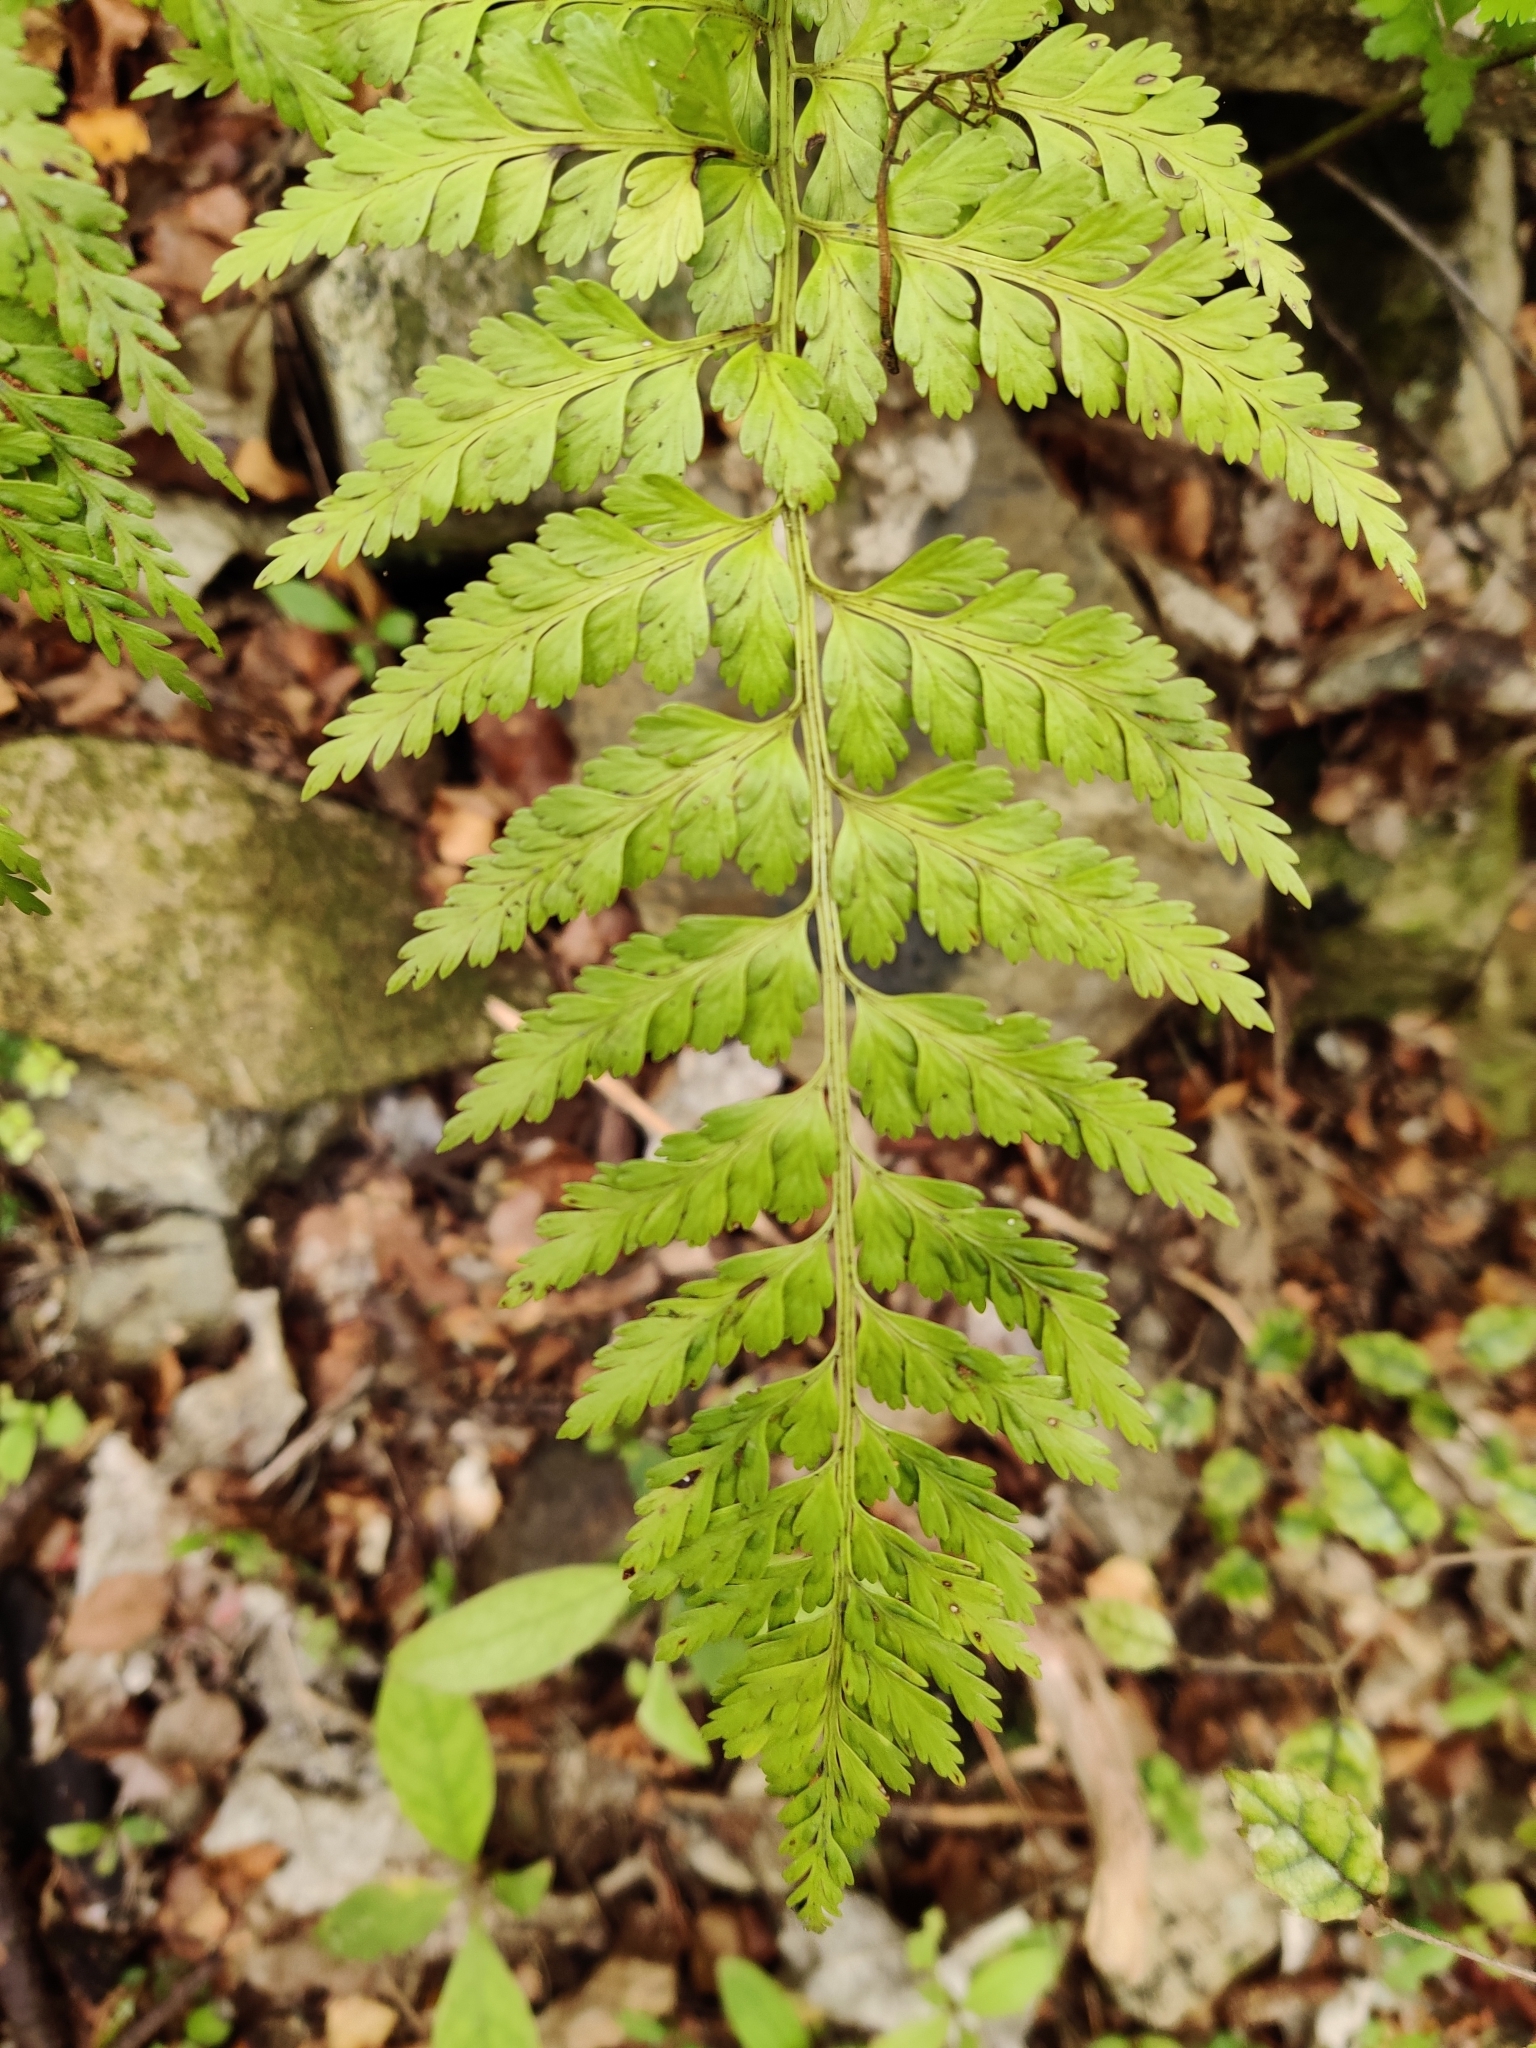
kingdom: Plantae
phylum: Tracheophyta
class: Polypodiopsida
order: Polypodiales
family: Aspleniaceae
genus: Asplenium
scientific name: Asplenium
